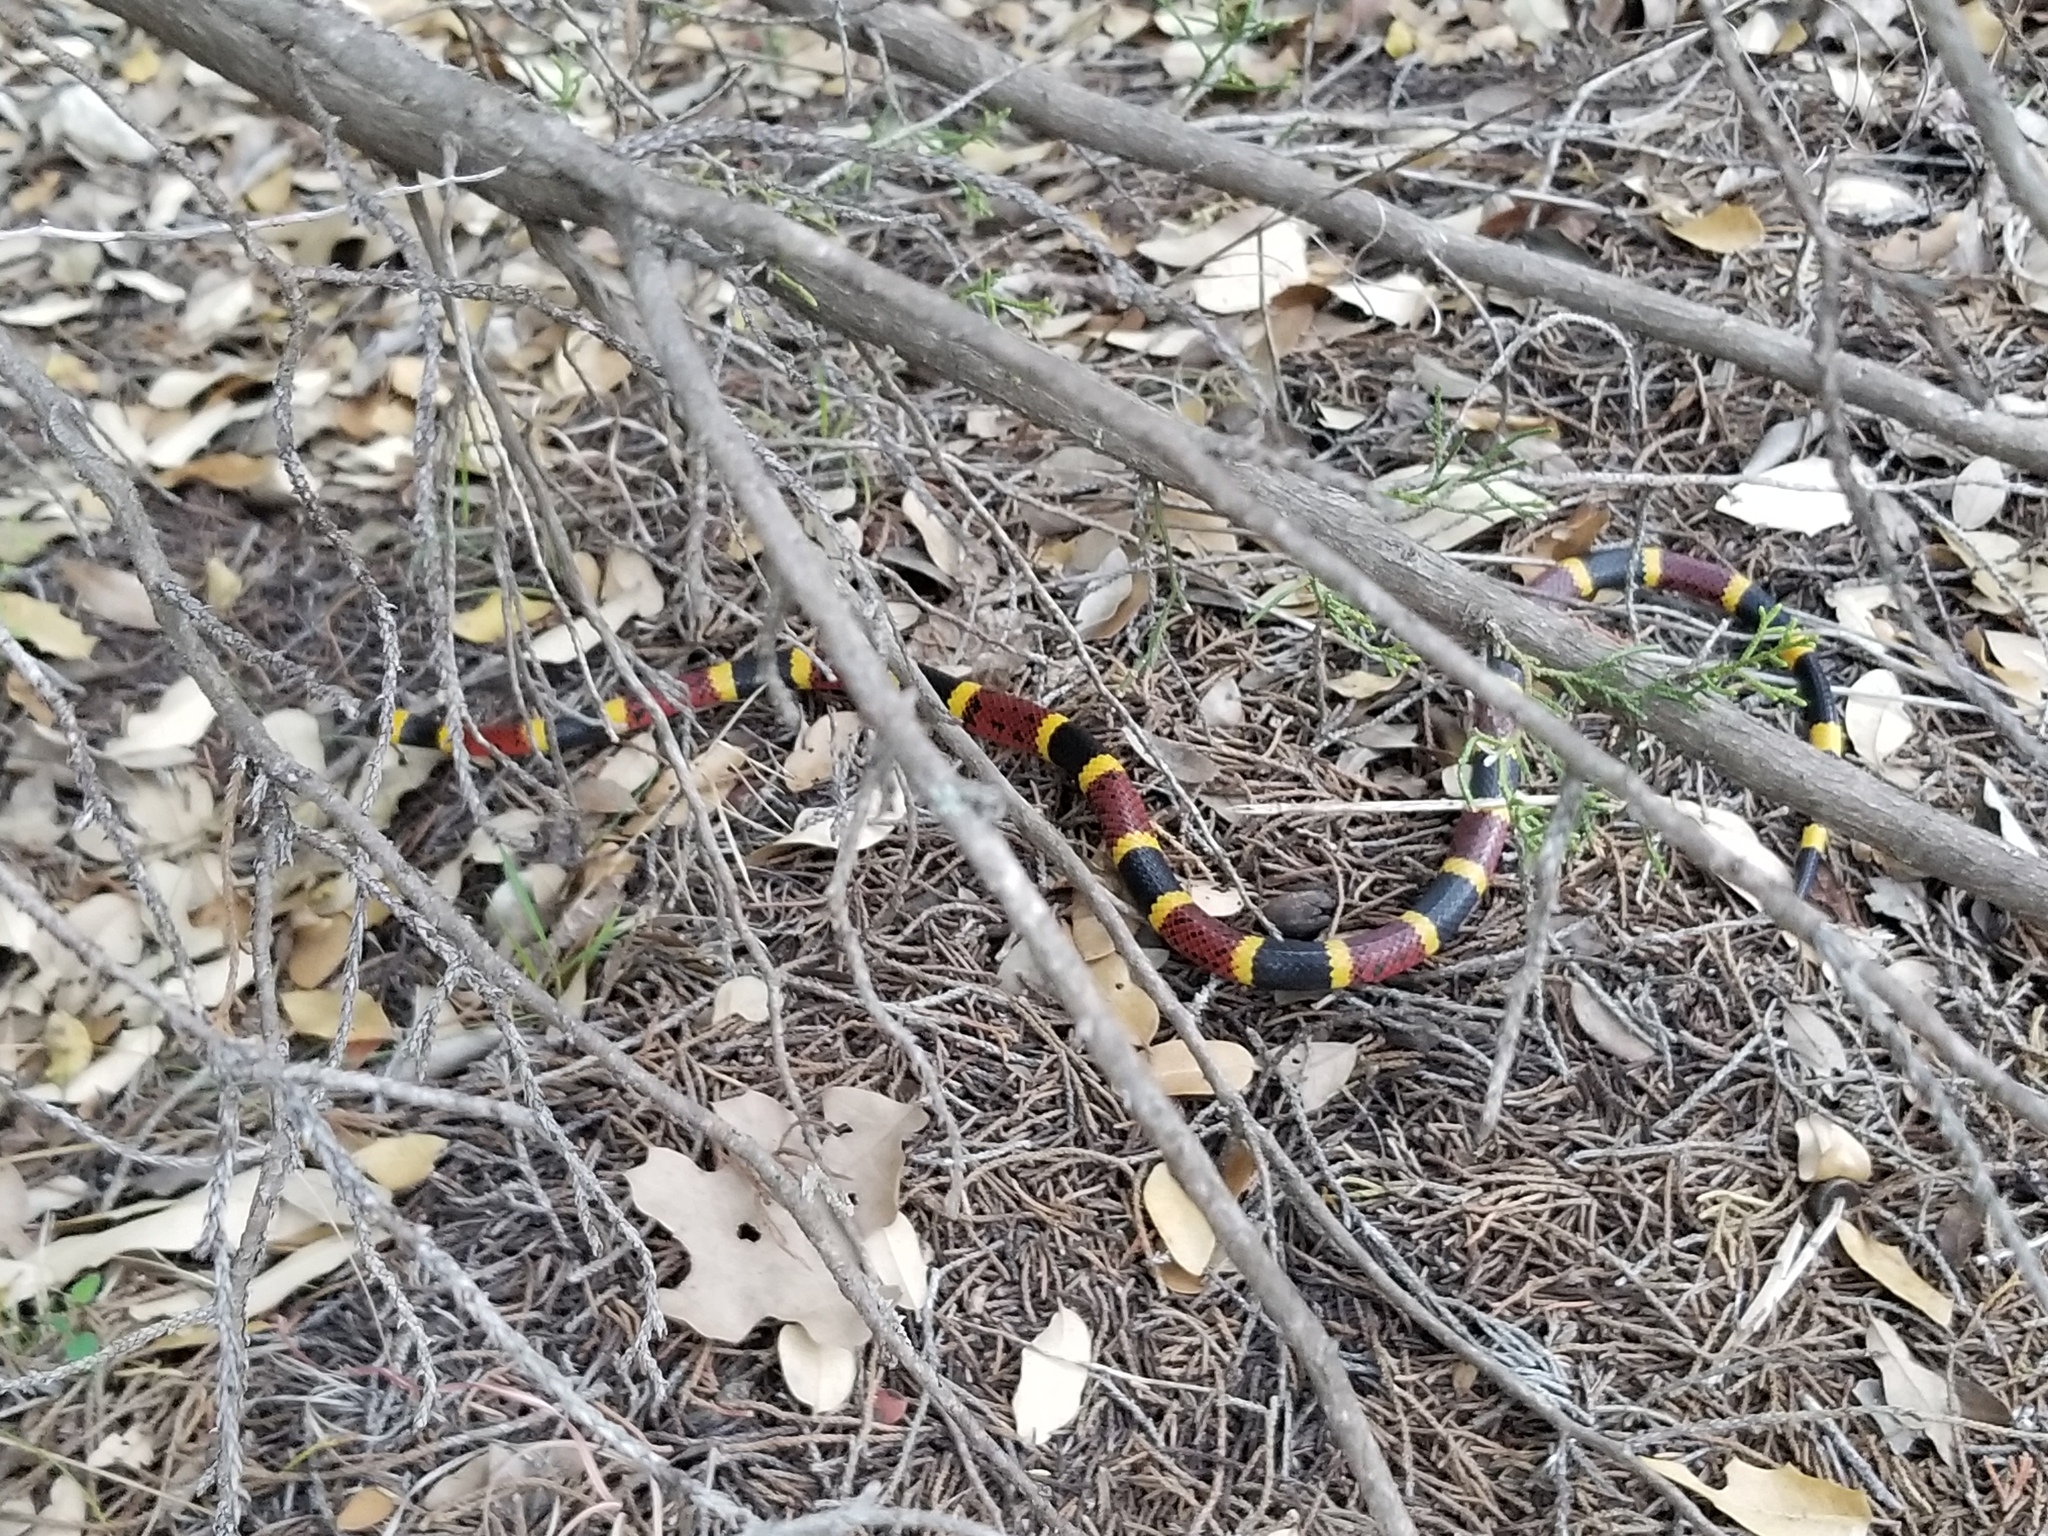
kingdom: Animalia
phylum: Chordata
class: Squamata
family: Elapidae
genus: Micrurus
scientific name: Micrurus tener
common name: Texas coral snake
